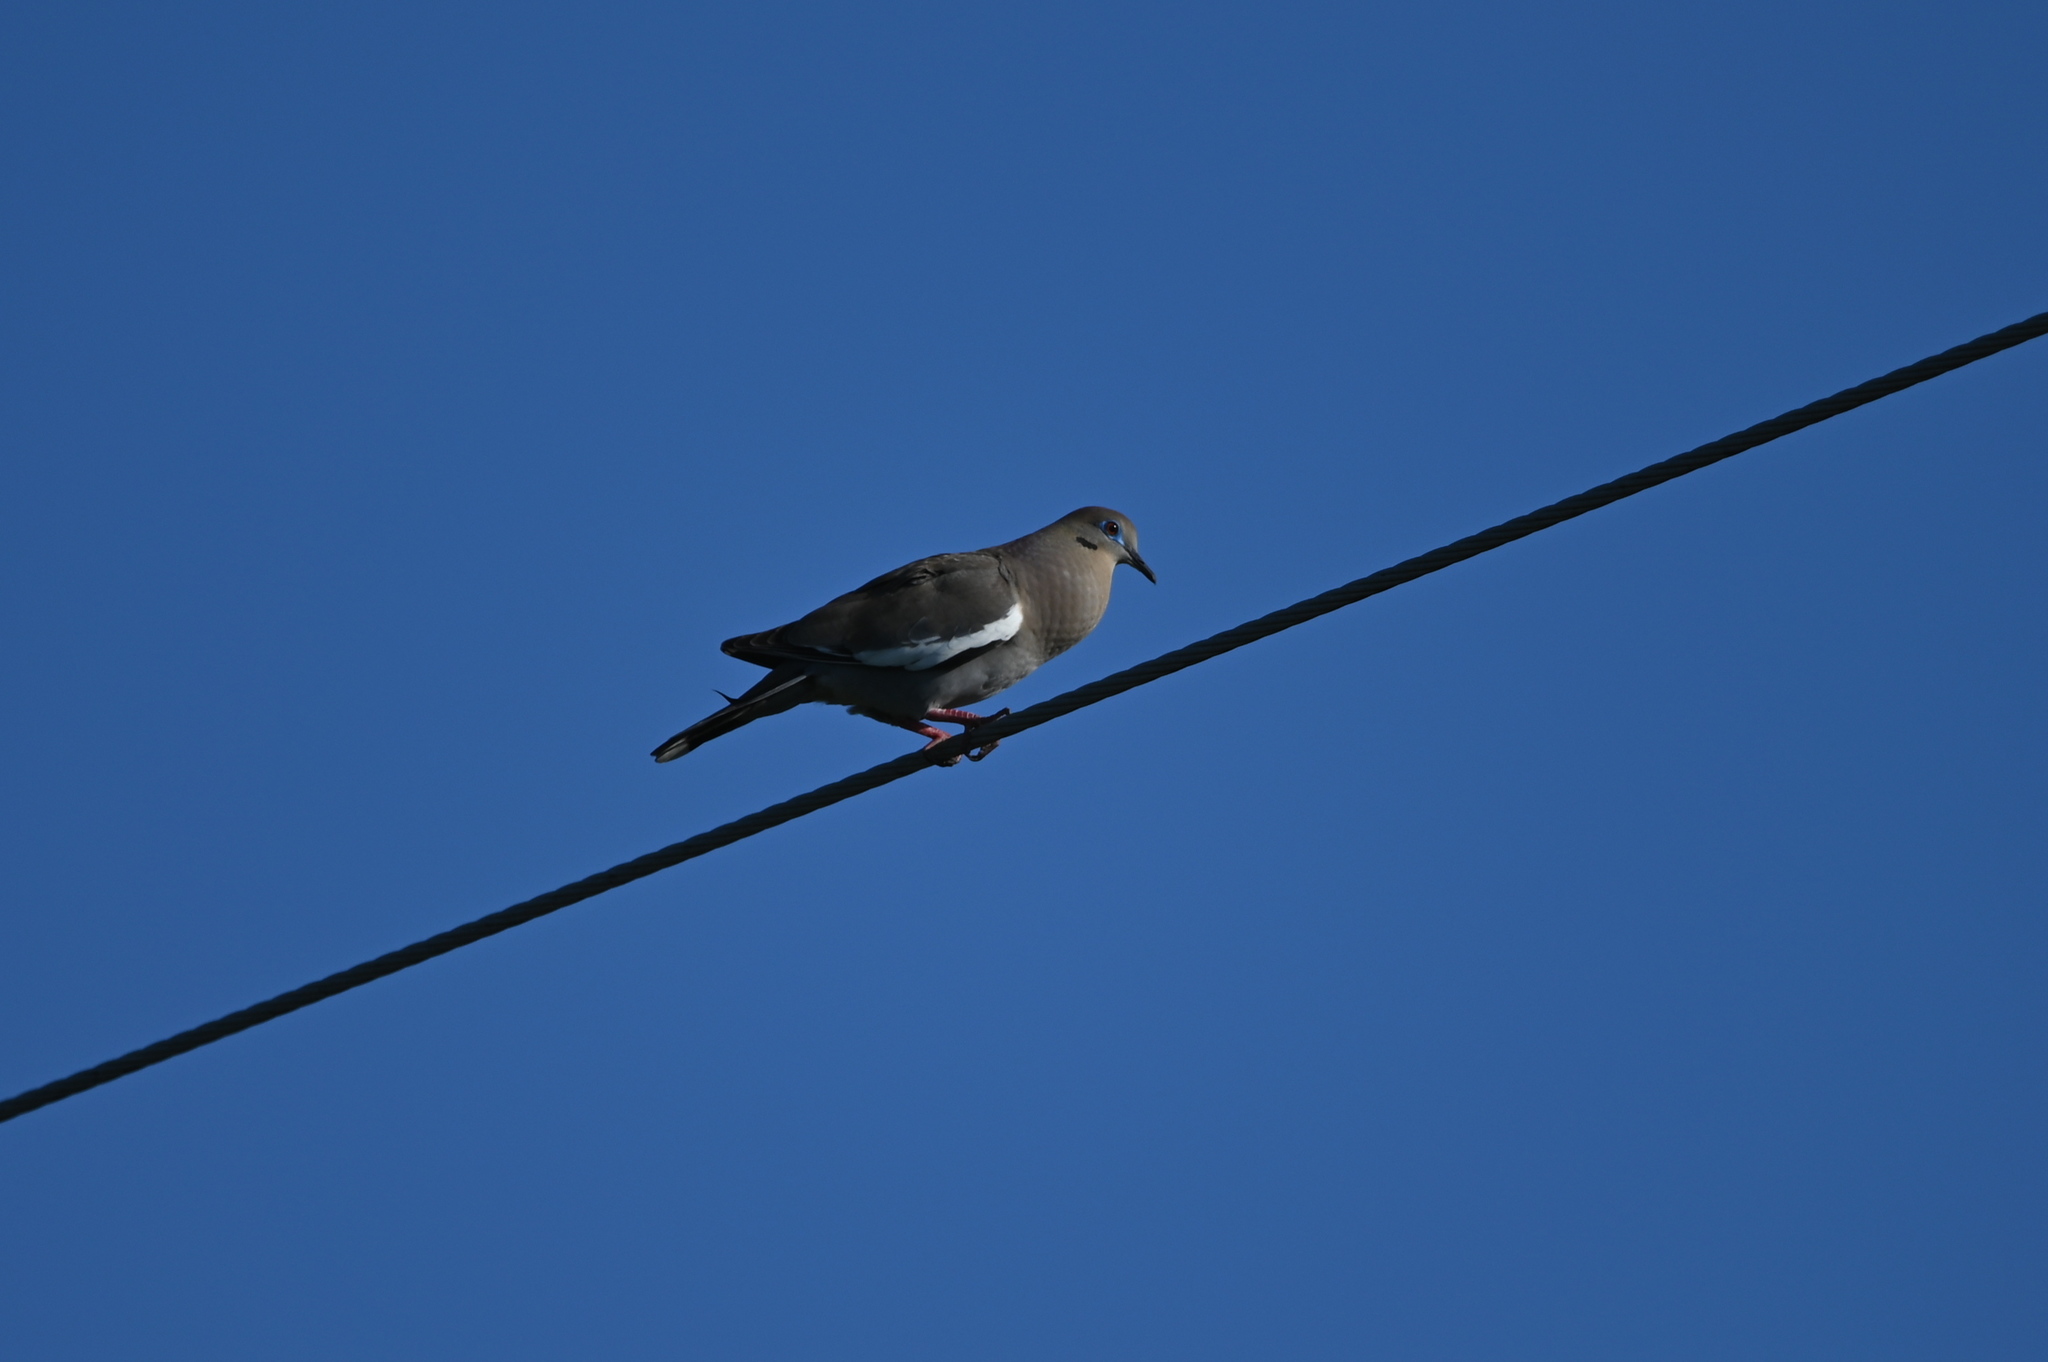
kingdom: Animalia
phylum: Chordata
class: Aves
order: Columbiformes
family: Columbidae
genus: Zenaida
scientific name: Zenaida asiatica
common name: White-winged dove
